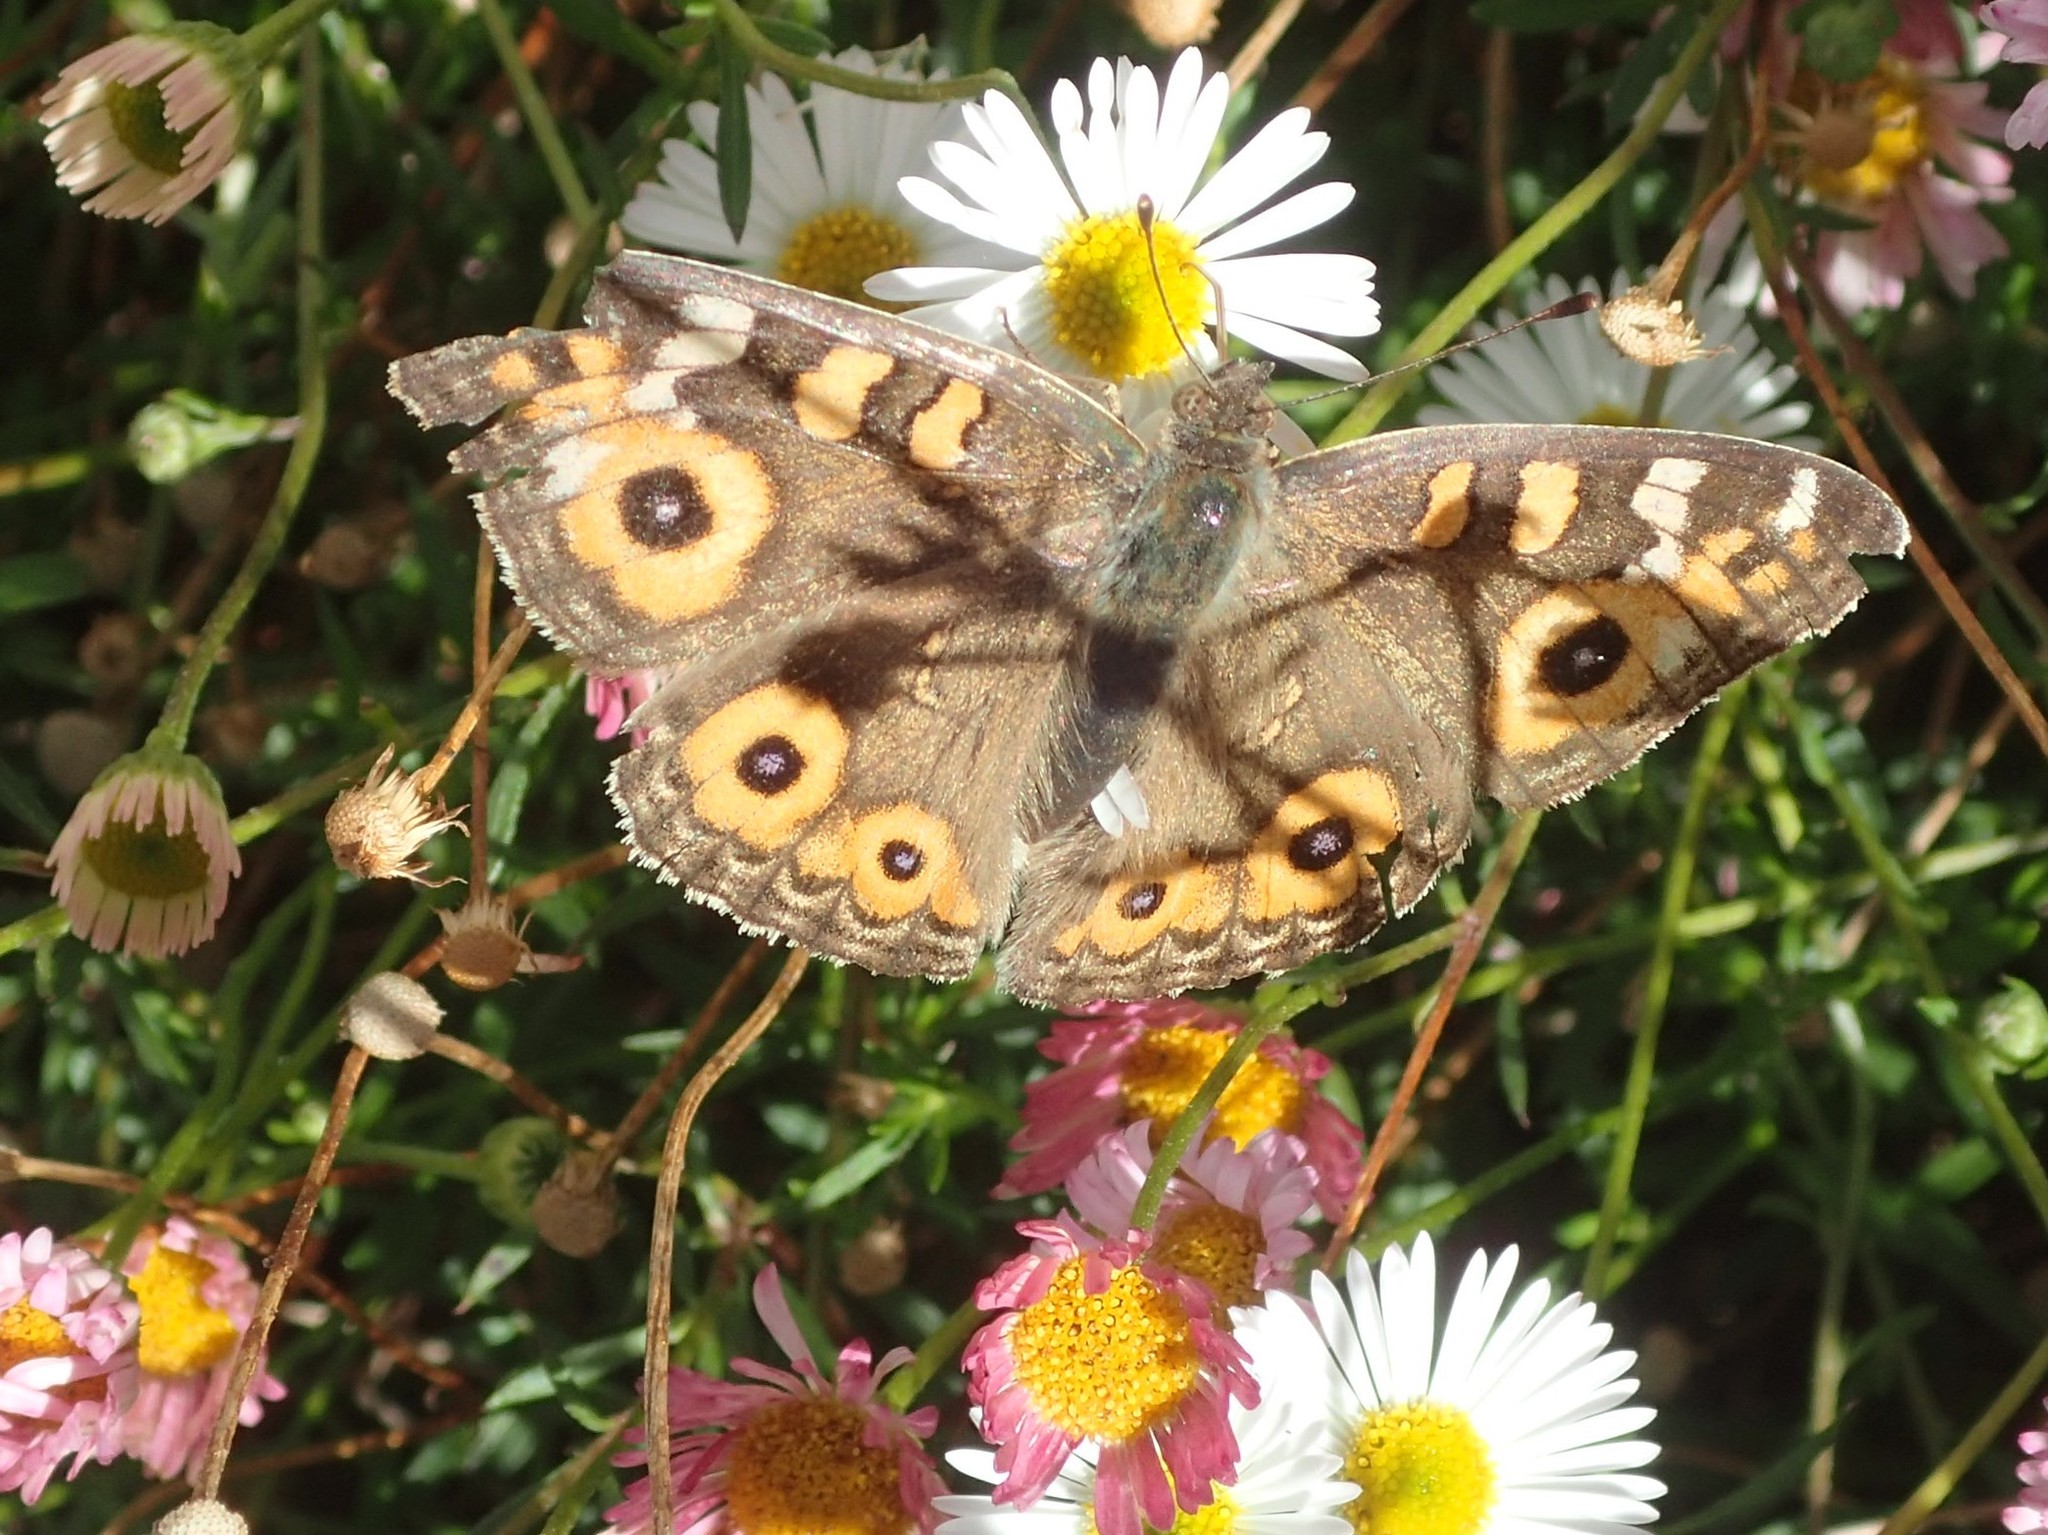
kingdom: Animalia
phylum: Arthropoda
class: Insecta
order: Lepidoptera
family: Nymphalidae
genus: Junonia
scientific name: Junonia villida
